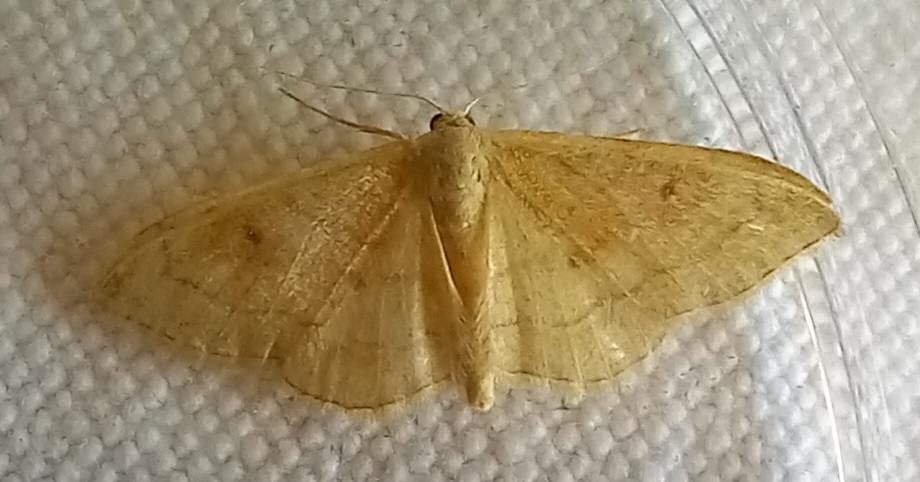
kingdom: Animalia
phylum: Arthropoda
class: Insecta
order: Lepidoptera
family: Geometridae
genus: Idaea
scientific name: Idaea bilinearia
